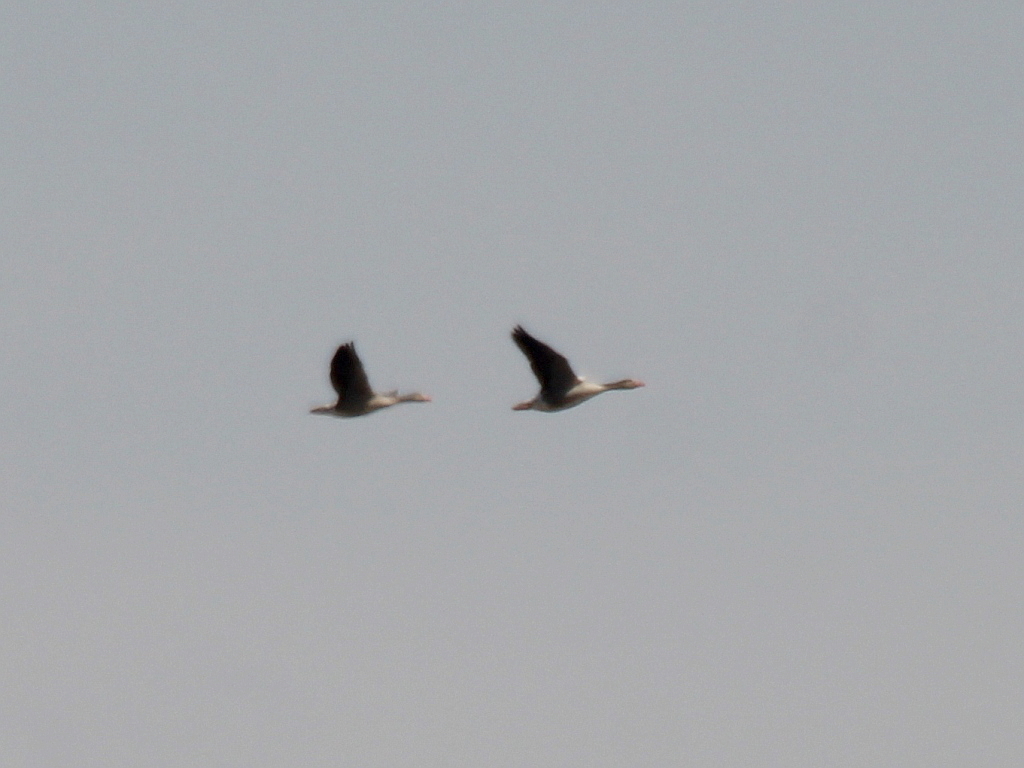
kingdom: Animalia
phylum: Chordata
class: Aves
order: Anseriformes
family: Anatidae
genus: Anser
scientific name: Anser anser
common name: Greylag goose
